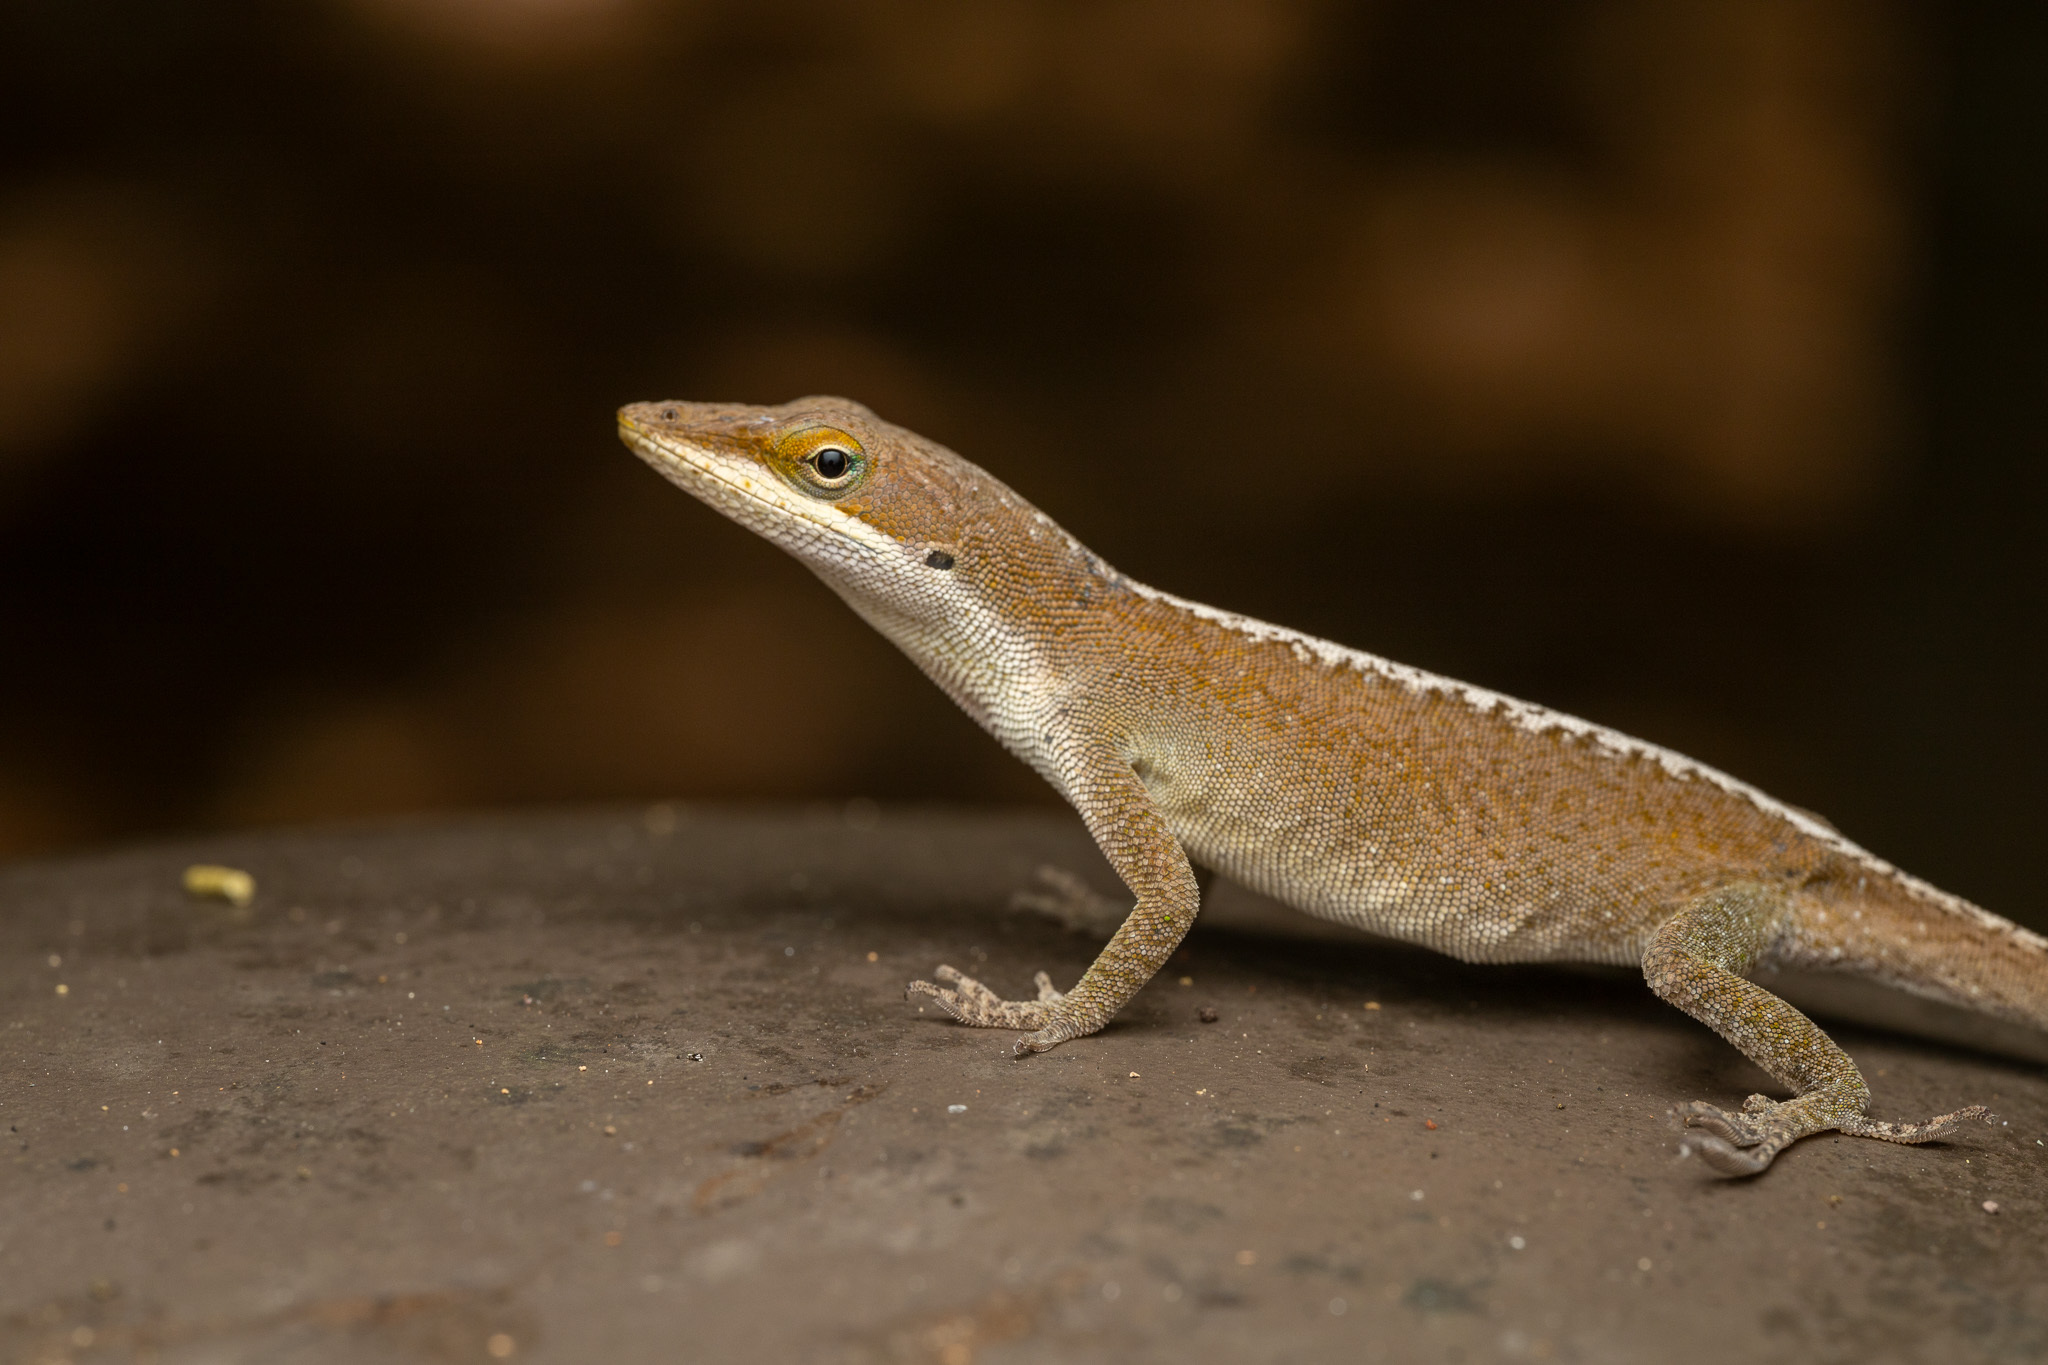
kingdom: Animalia
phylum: Chordata
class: Squamata
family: Dactyloidae
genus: Anolis
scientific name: Anolis carolinensis
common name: Green anole
